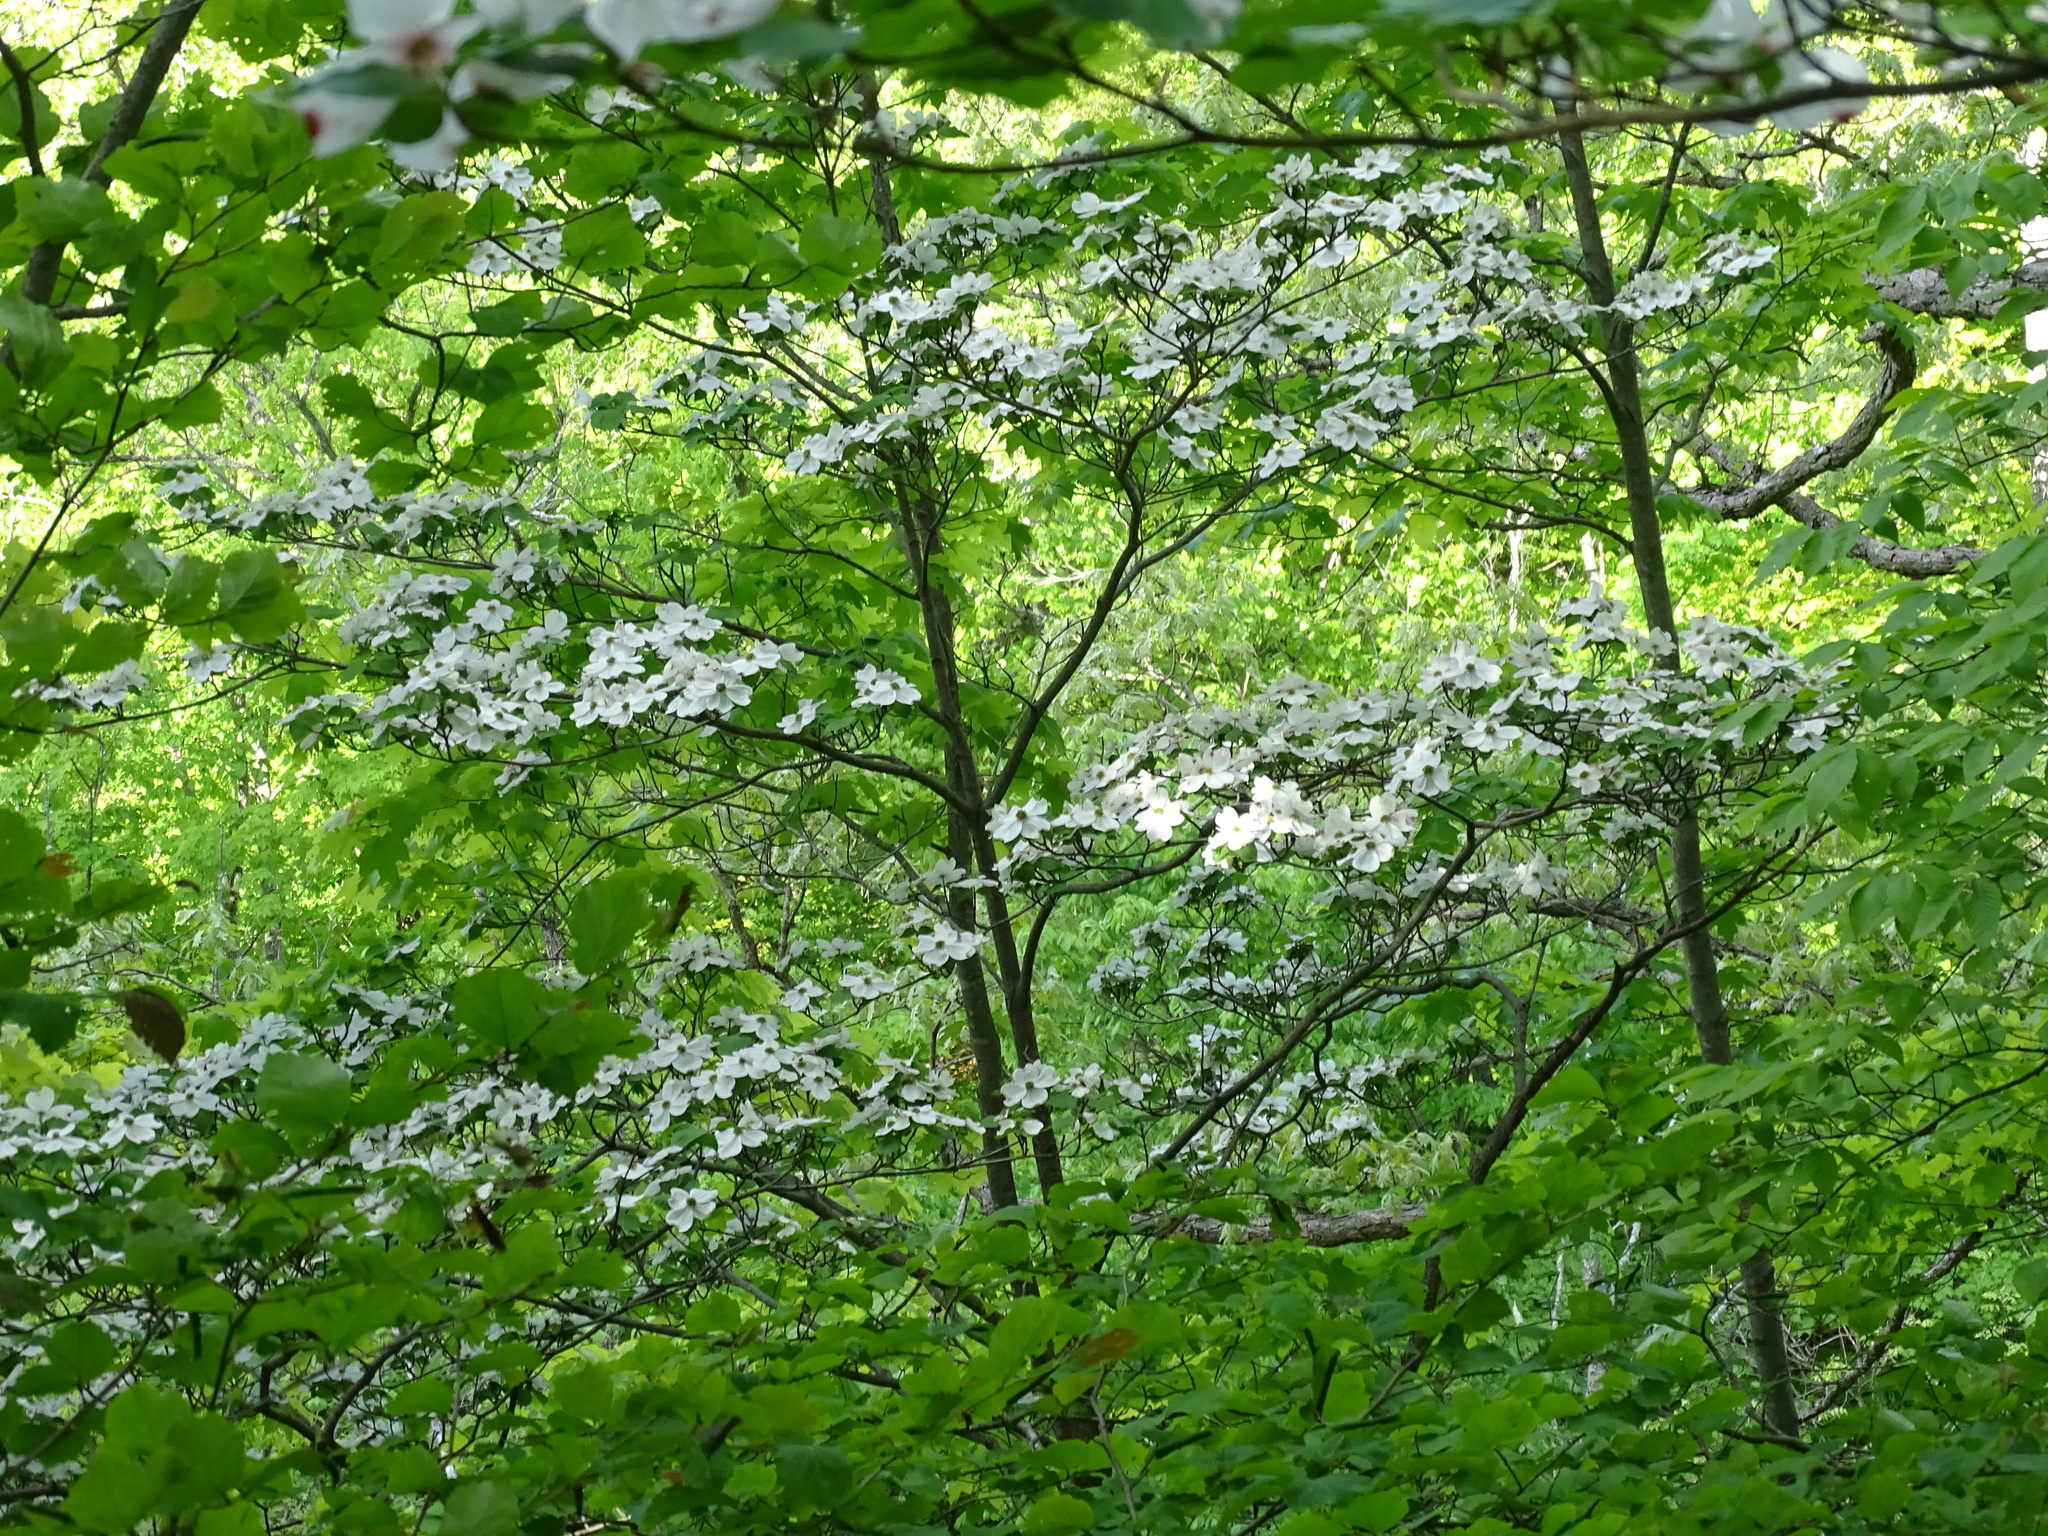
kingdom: Plantae
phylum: Tracheophyta
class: Magnoliopsida
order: Cornales
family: Cornaceae
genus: Cornus
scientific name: Cornus florida
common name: Flowering dogwood
